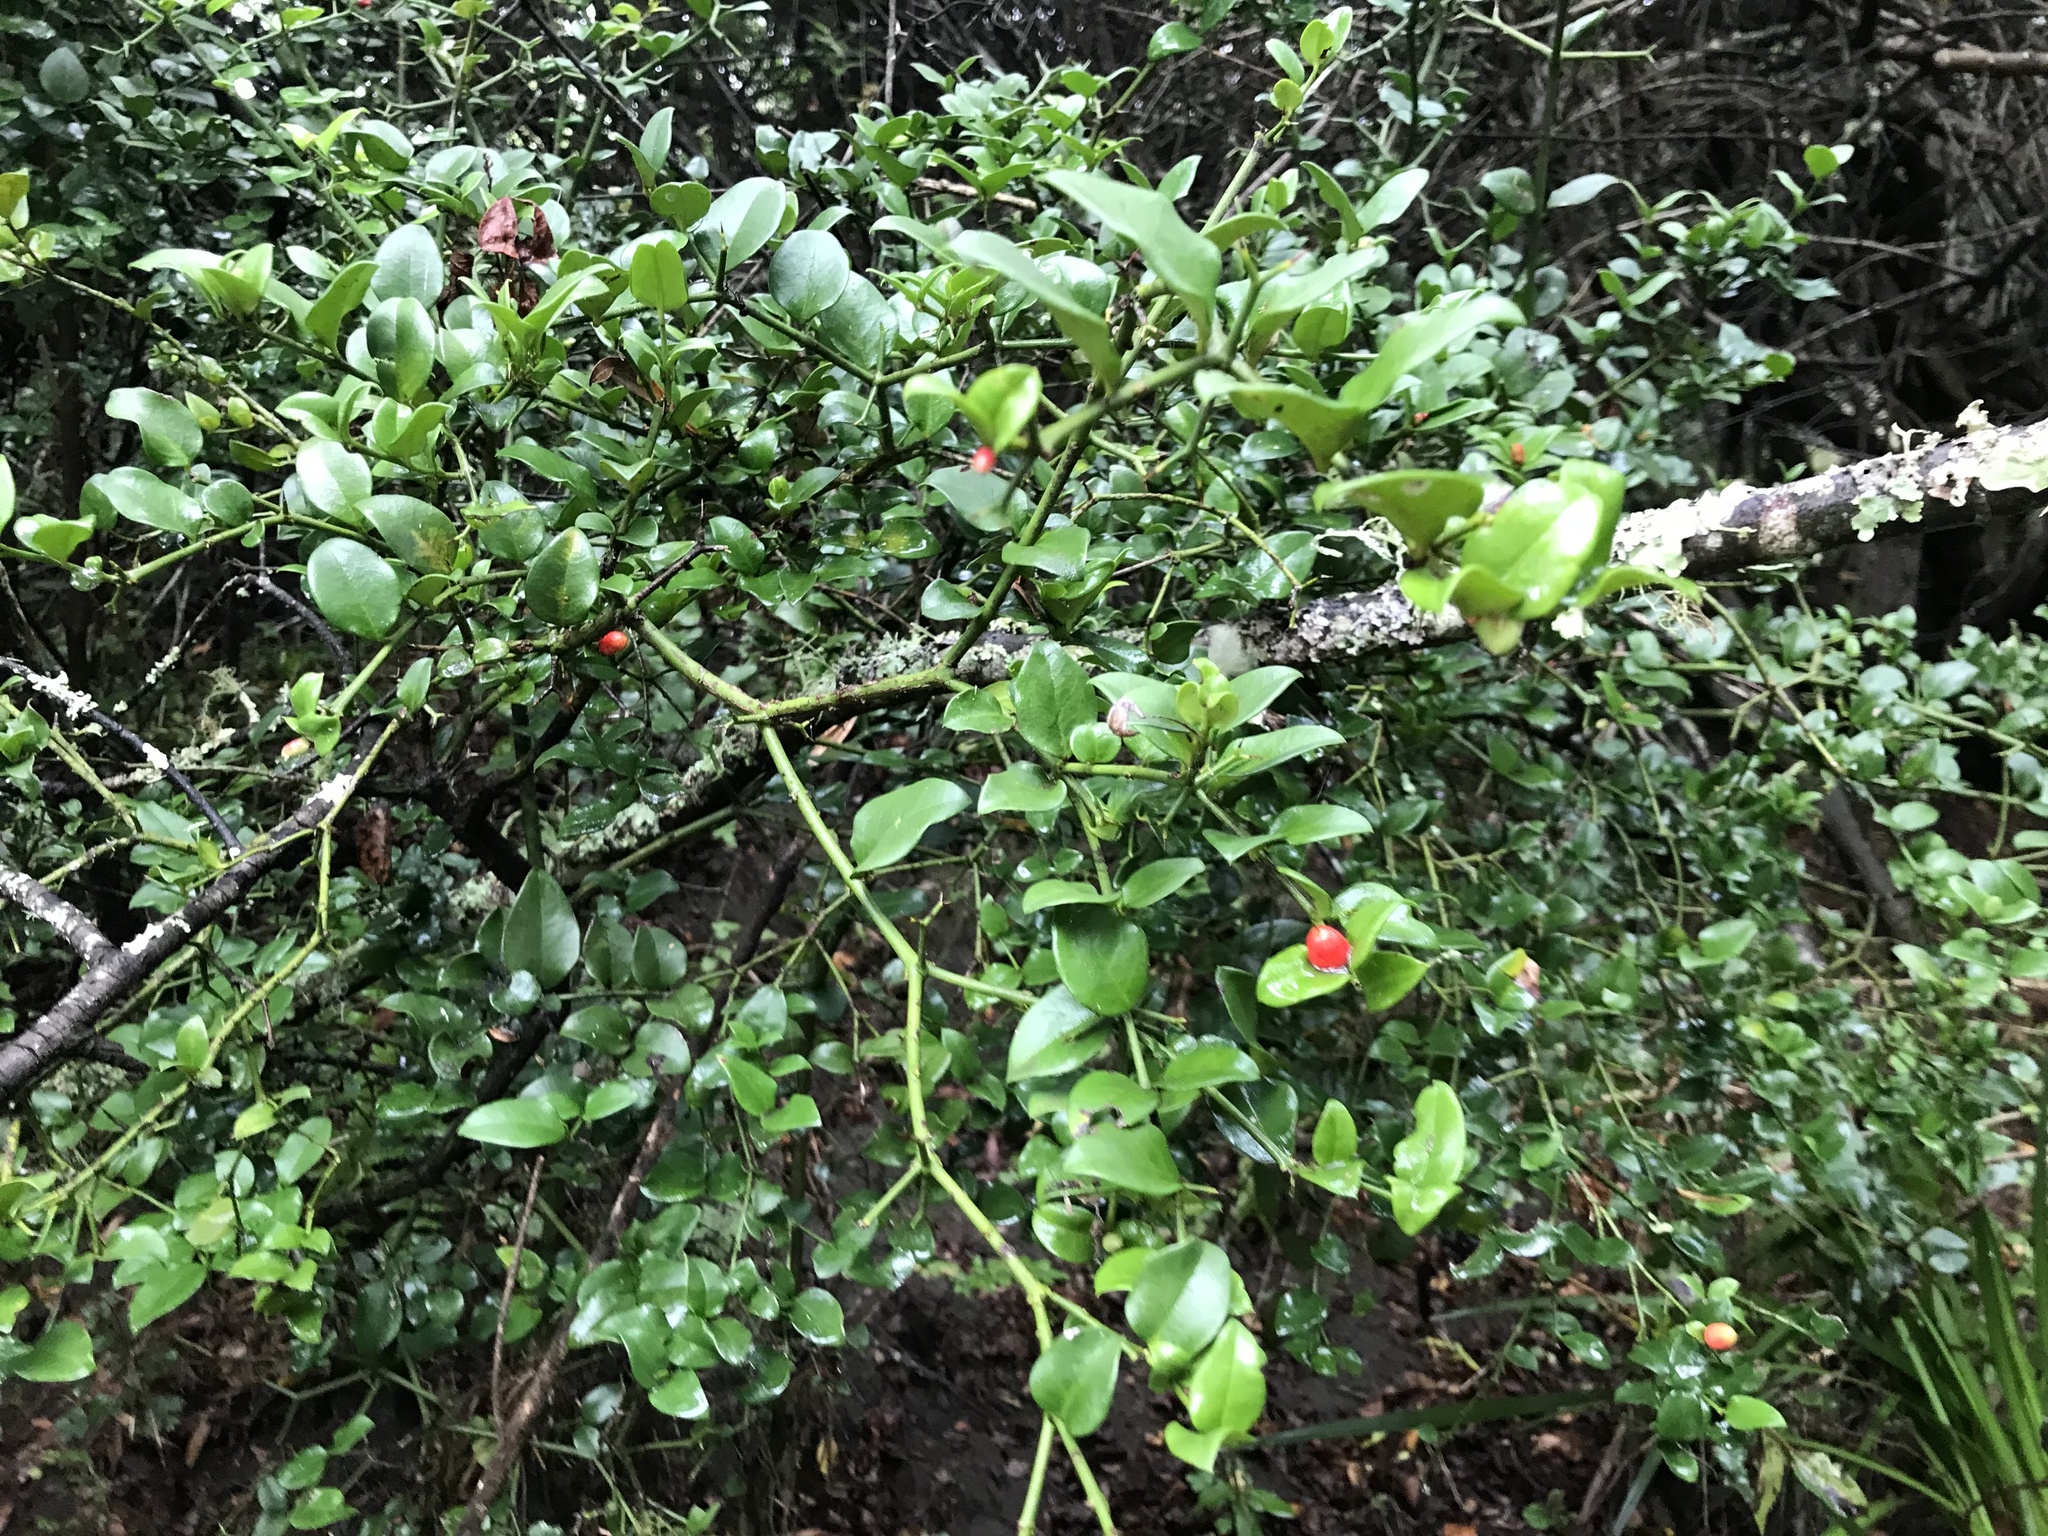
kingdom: Plantae
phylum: Tracheophyta
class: Magnoliopsida
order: Gentianales
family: Apocynaceae
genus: Carissa
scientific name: Carissa bispinosa
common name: Forest num-num
